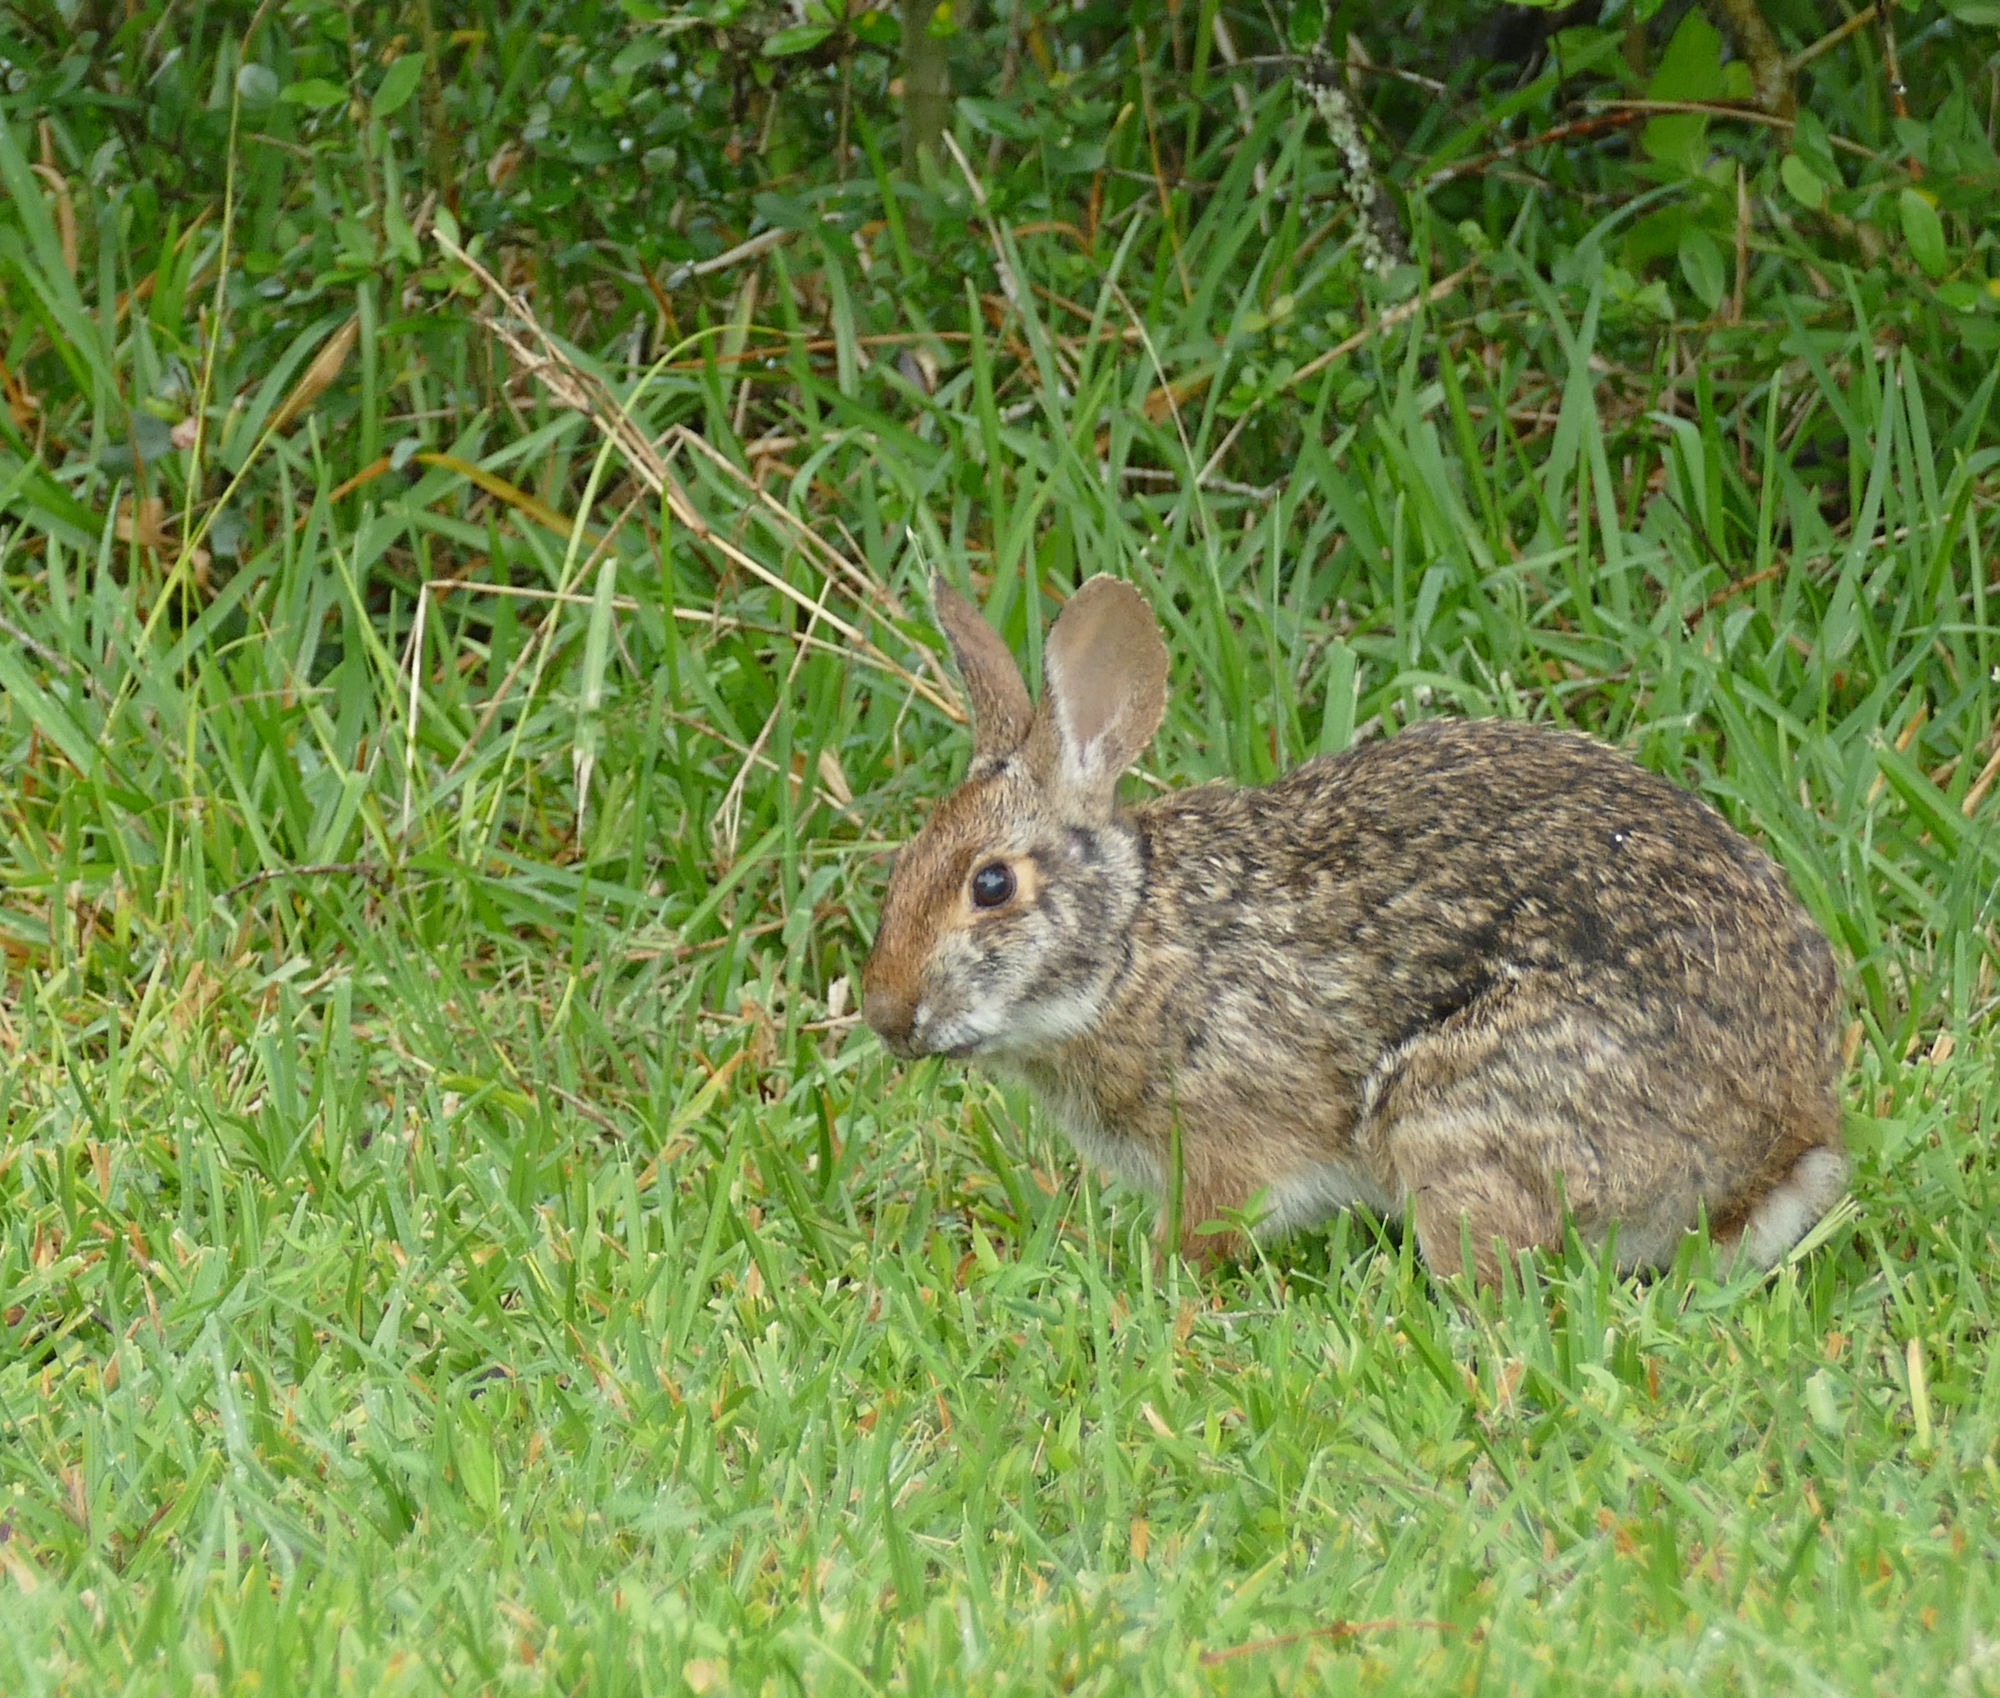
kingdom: Animalia
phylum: Chordata
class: Mammalia
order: Lagomorpha
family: Leporidae
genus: Sylvilagus
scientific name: Sylvilagus aquaticus
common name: Swamp rabbit
